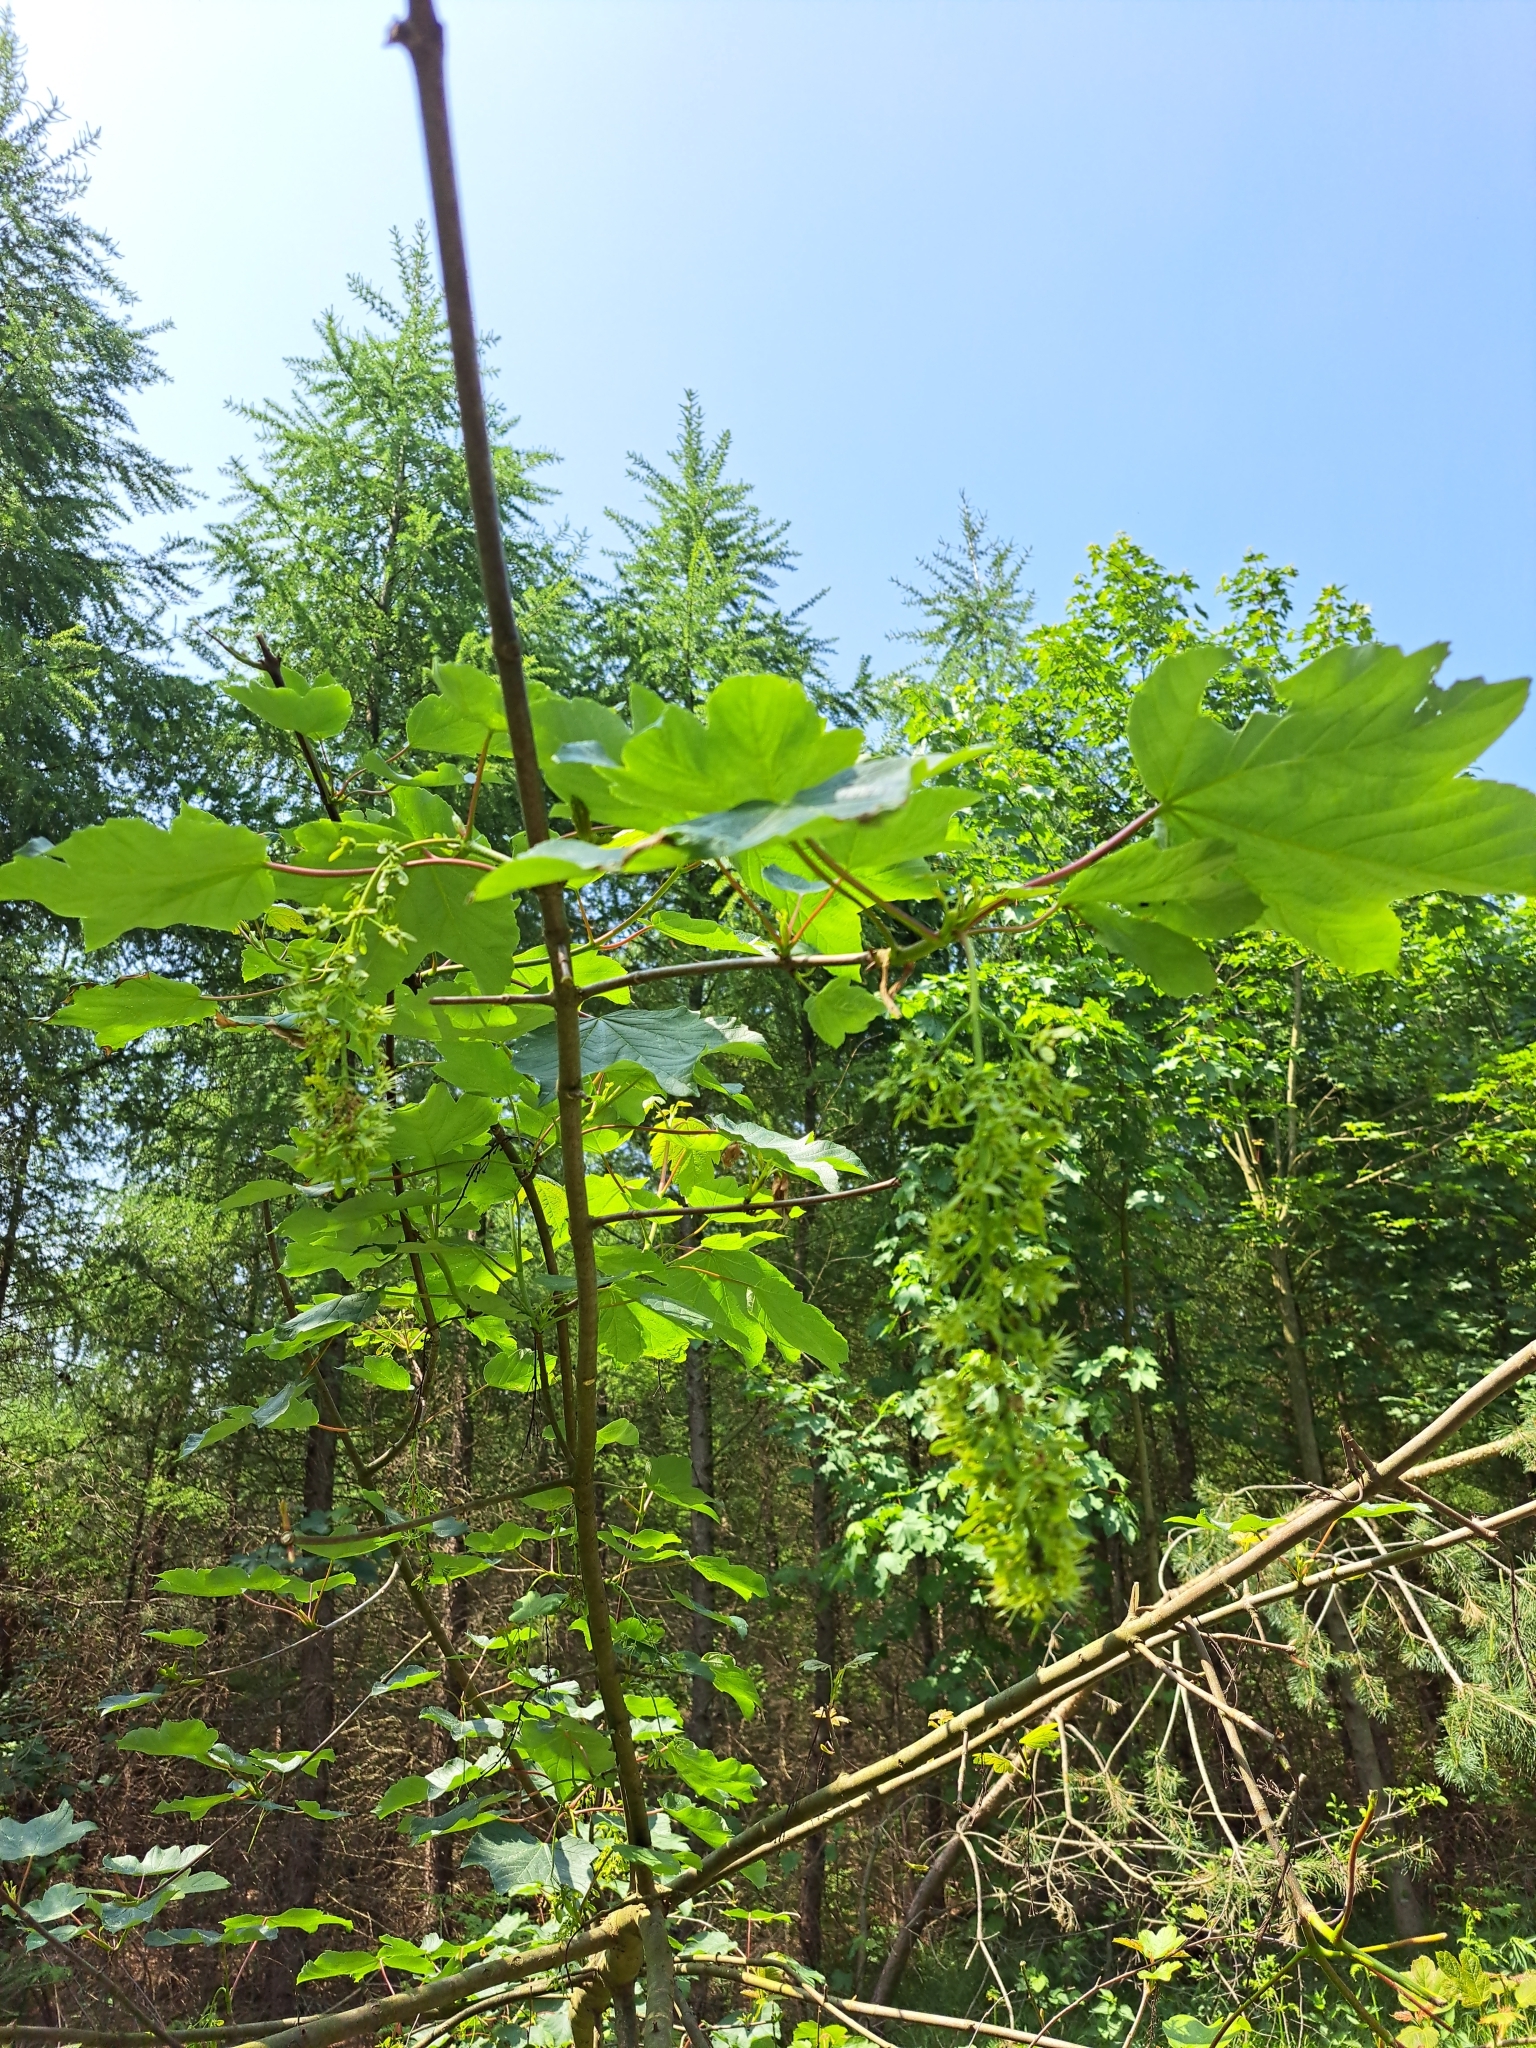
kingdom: Plantae
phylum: Tracheophyta
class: Magnoliopsida
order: Sapindales
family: Sapindaceae
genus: Acer
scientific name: Acer pseudoplatanus
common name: Sycamore
